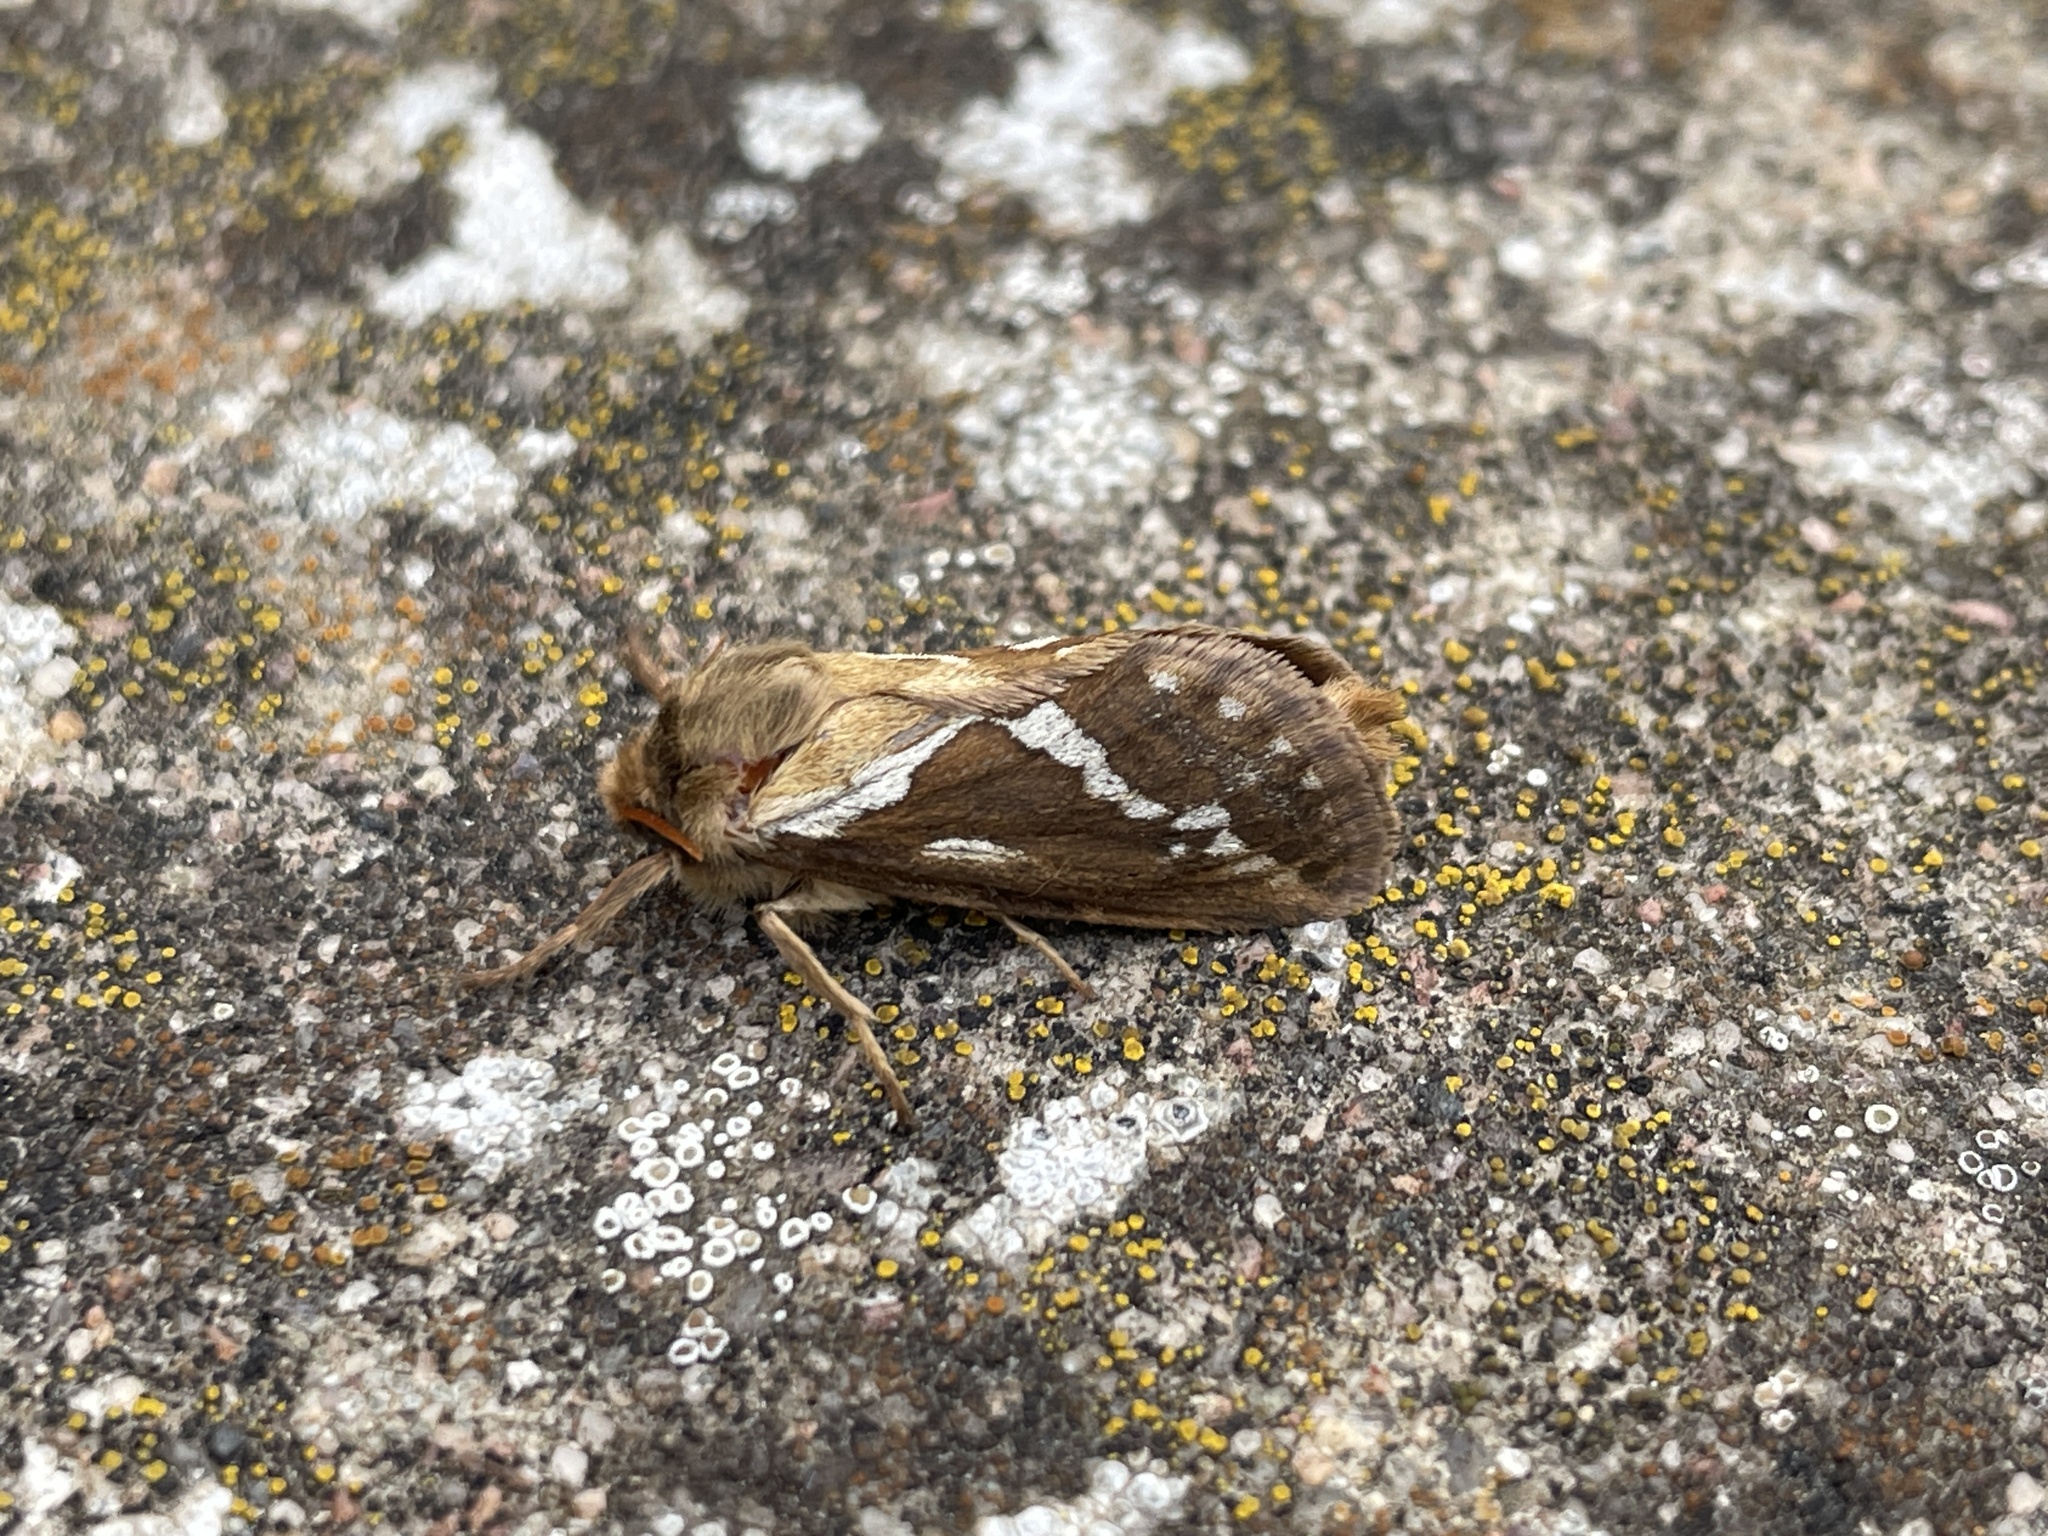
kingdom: Animalia
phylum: Arthropoda
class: Insecta
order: Lepidoptera
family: Hepialidae
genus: Korscheltellus
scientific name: Korscheltellus lupulina
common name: Common swift
